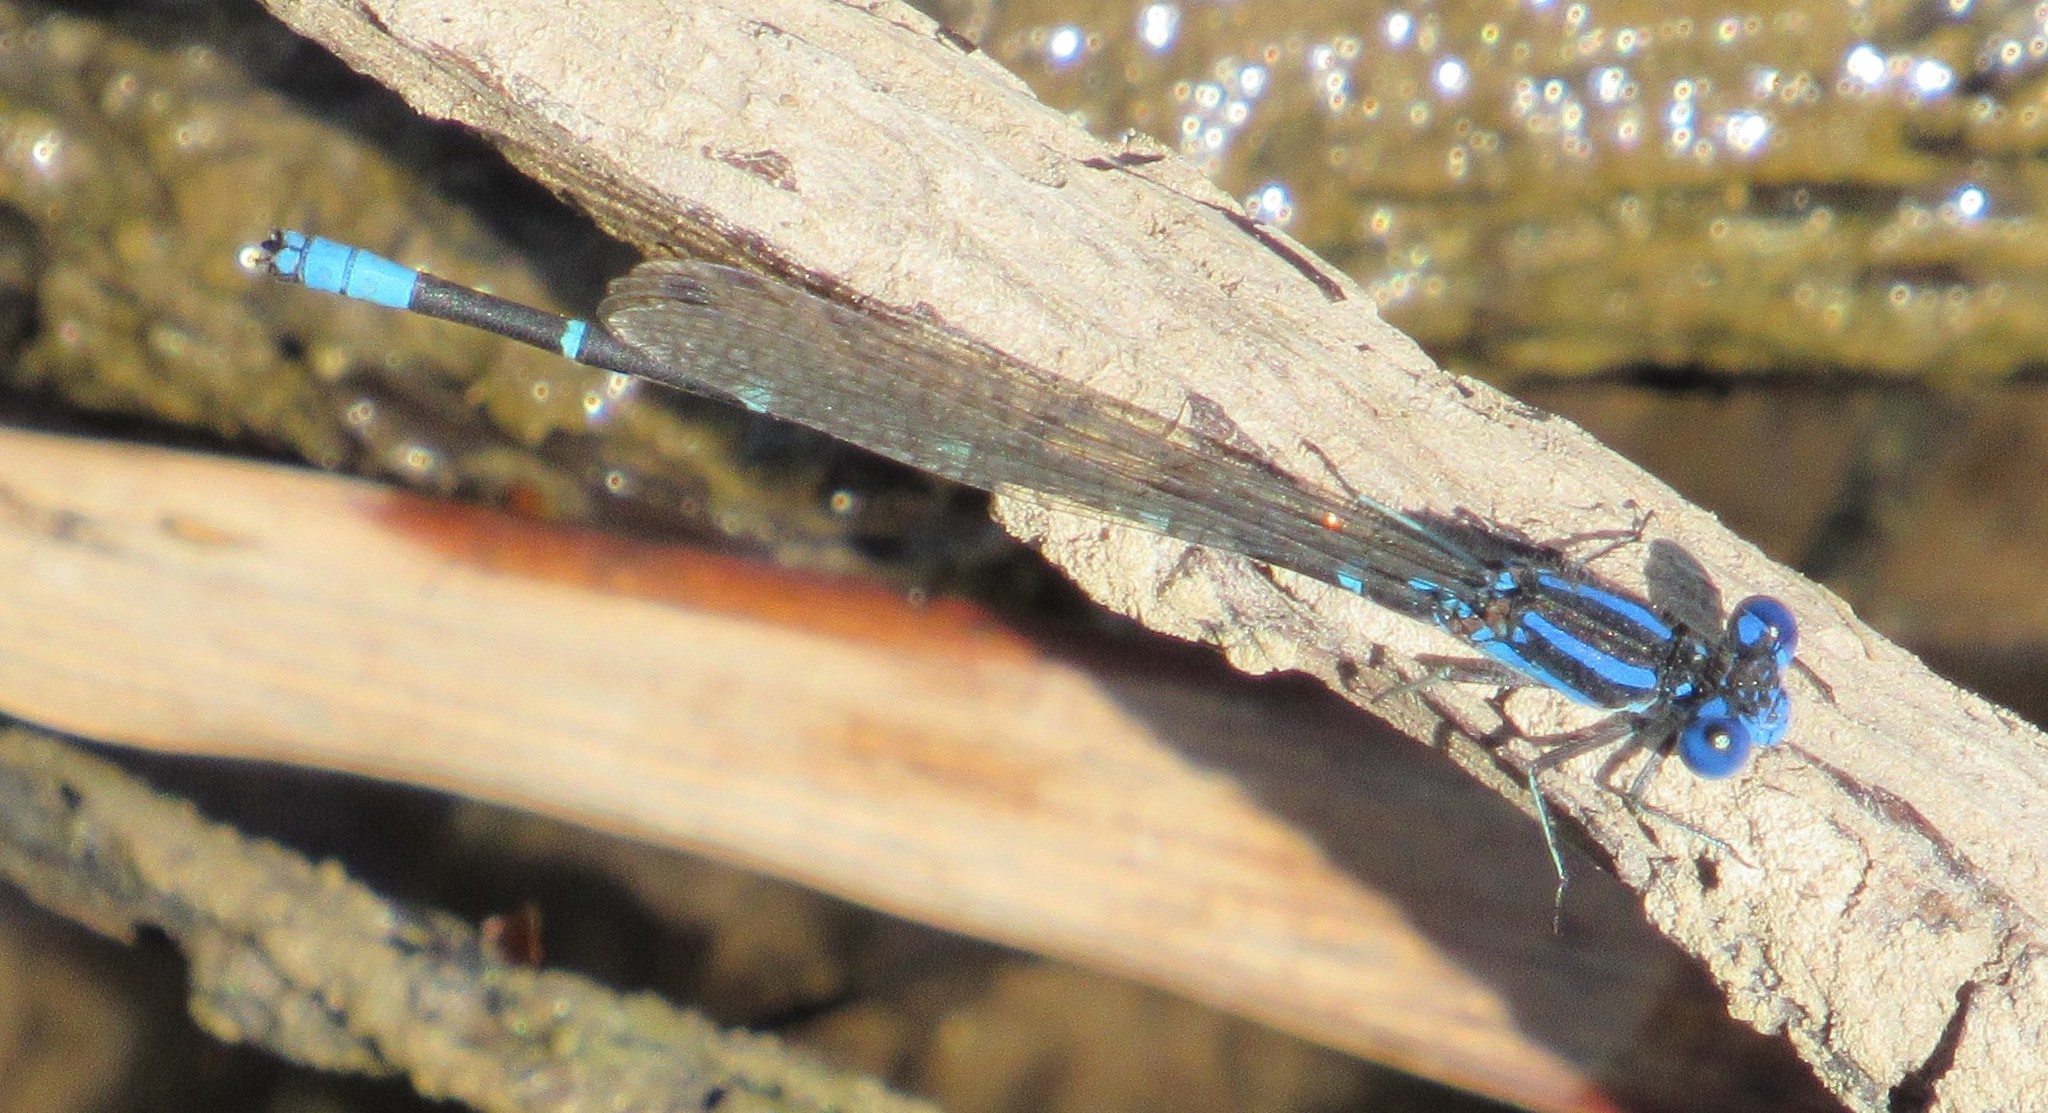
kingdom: Animalia
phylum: Arthropoda
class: Insecta
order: Odonata
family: Coenagrionidae
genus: Argia
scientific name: Argia sedula
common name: Blue-ringed dancer
